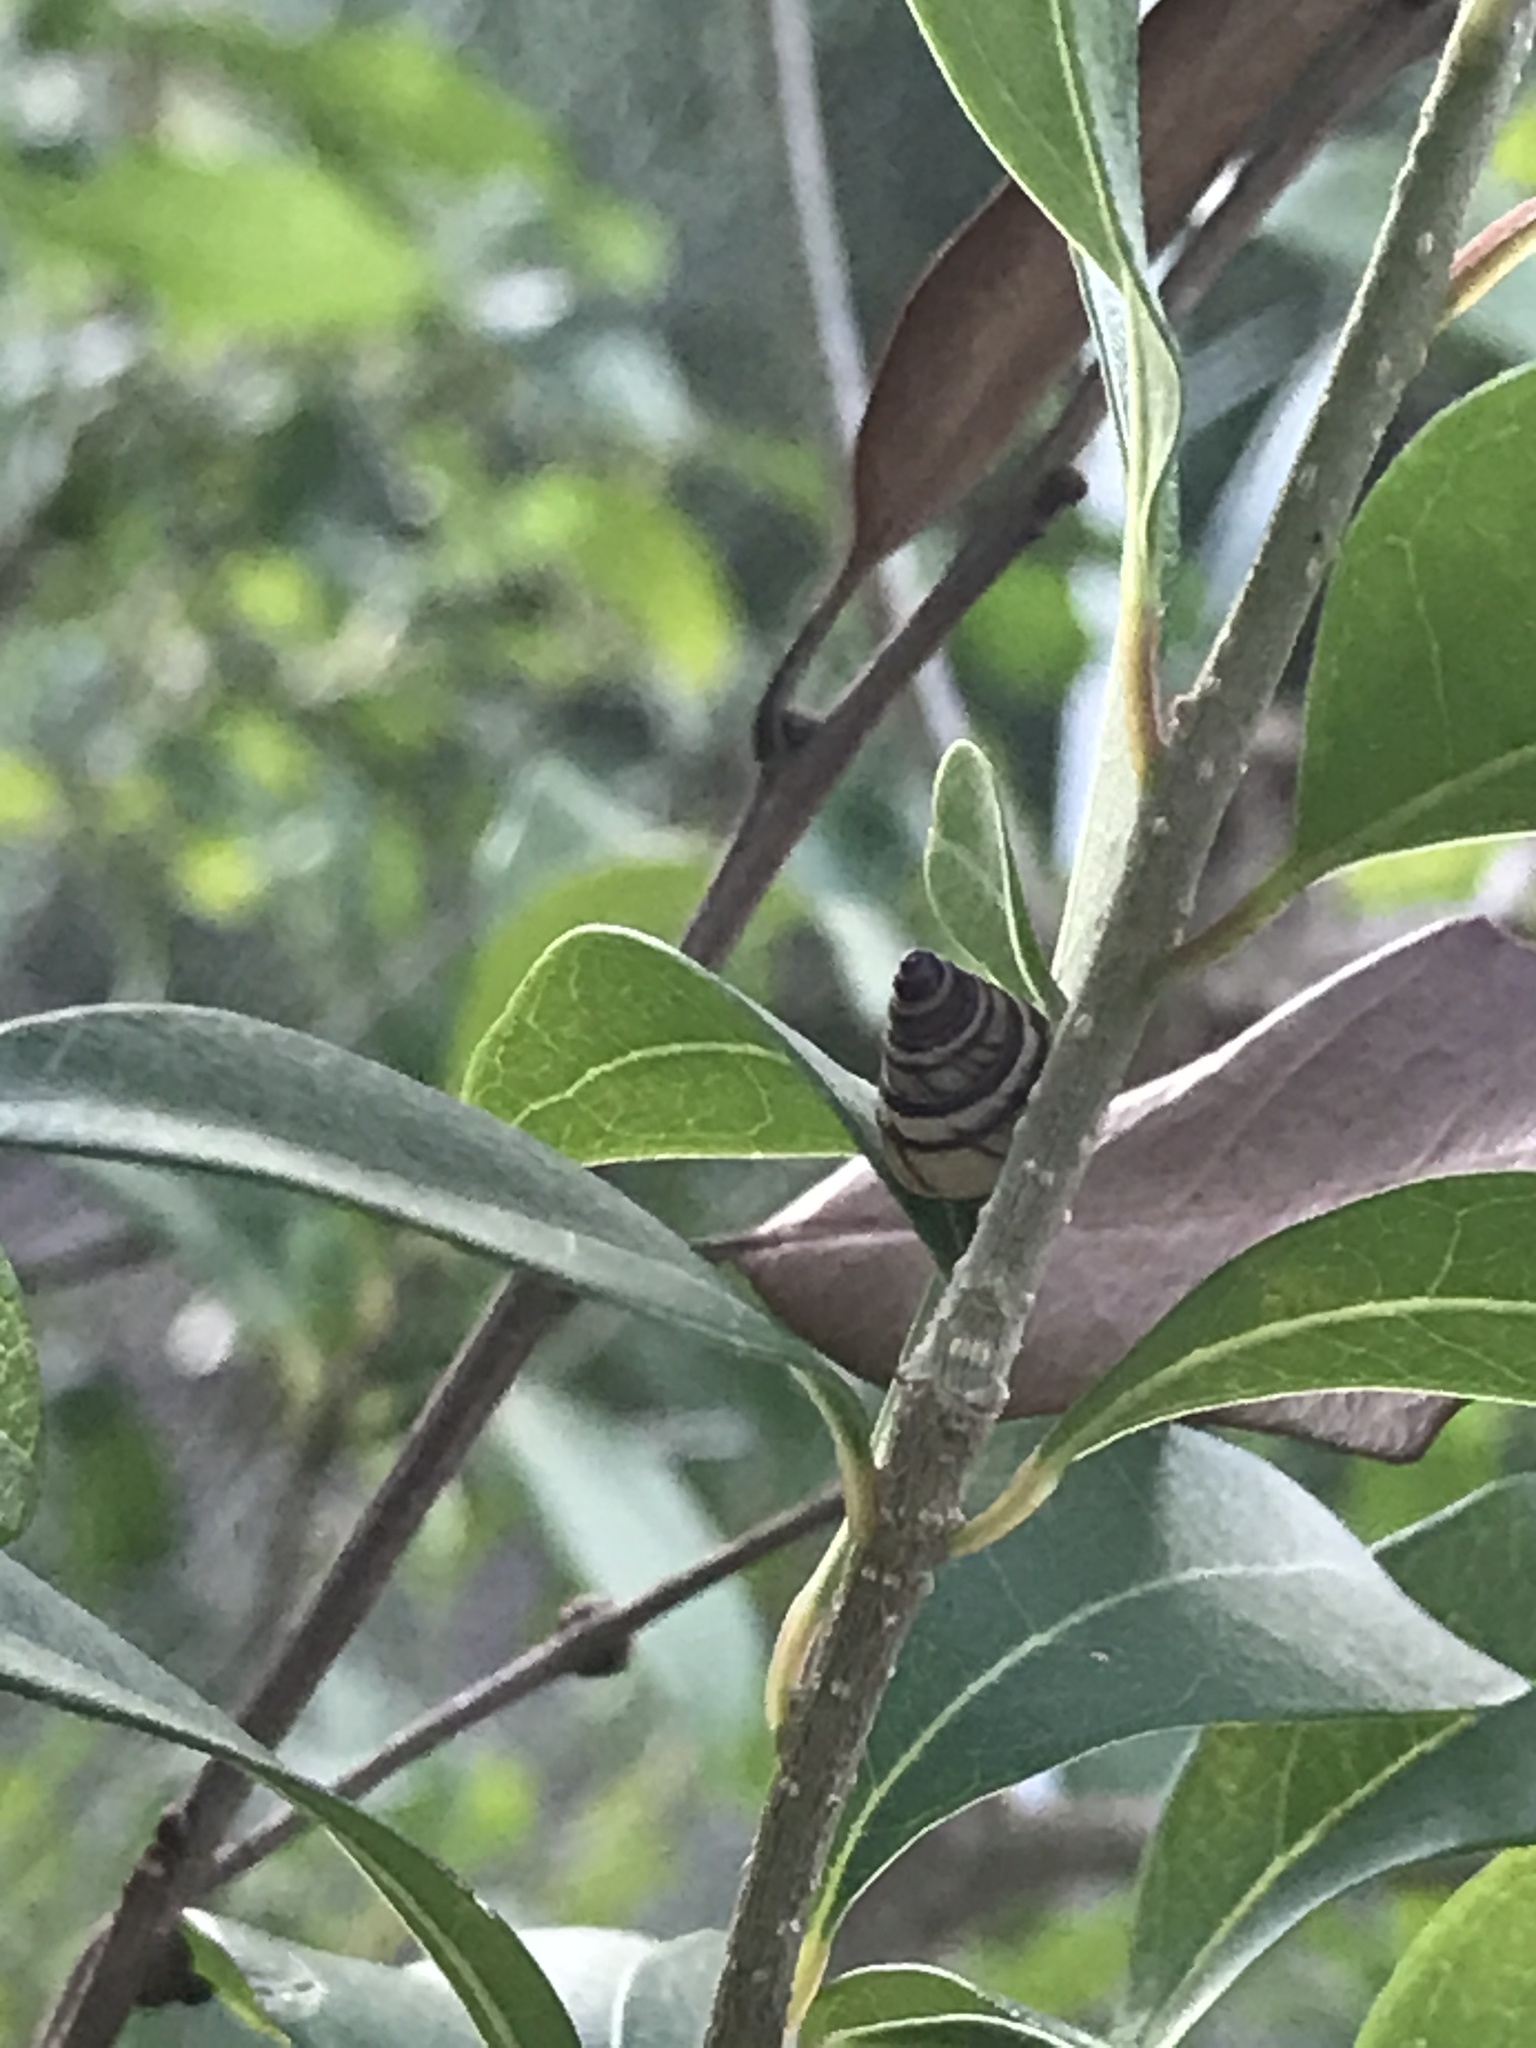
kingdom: Animalia
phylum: Mollusca
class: Gastropoda
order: Stylommatophora
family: Bulimulidae
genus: Drymaeus
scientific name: Drymaeus
